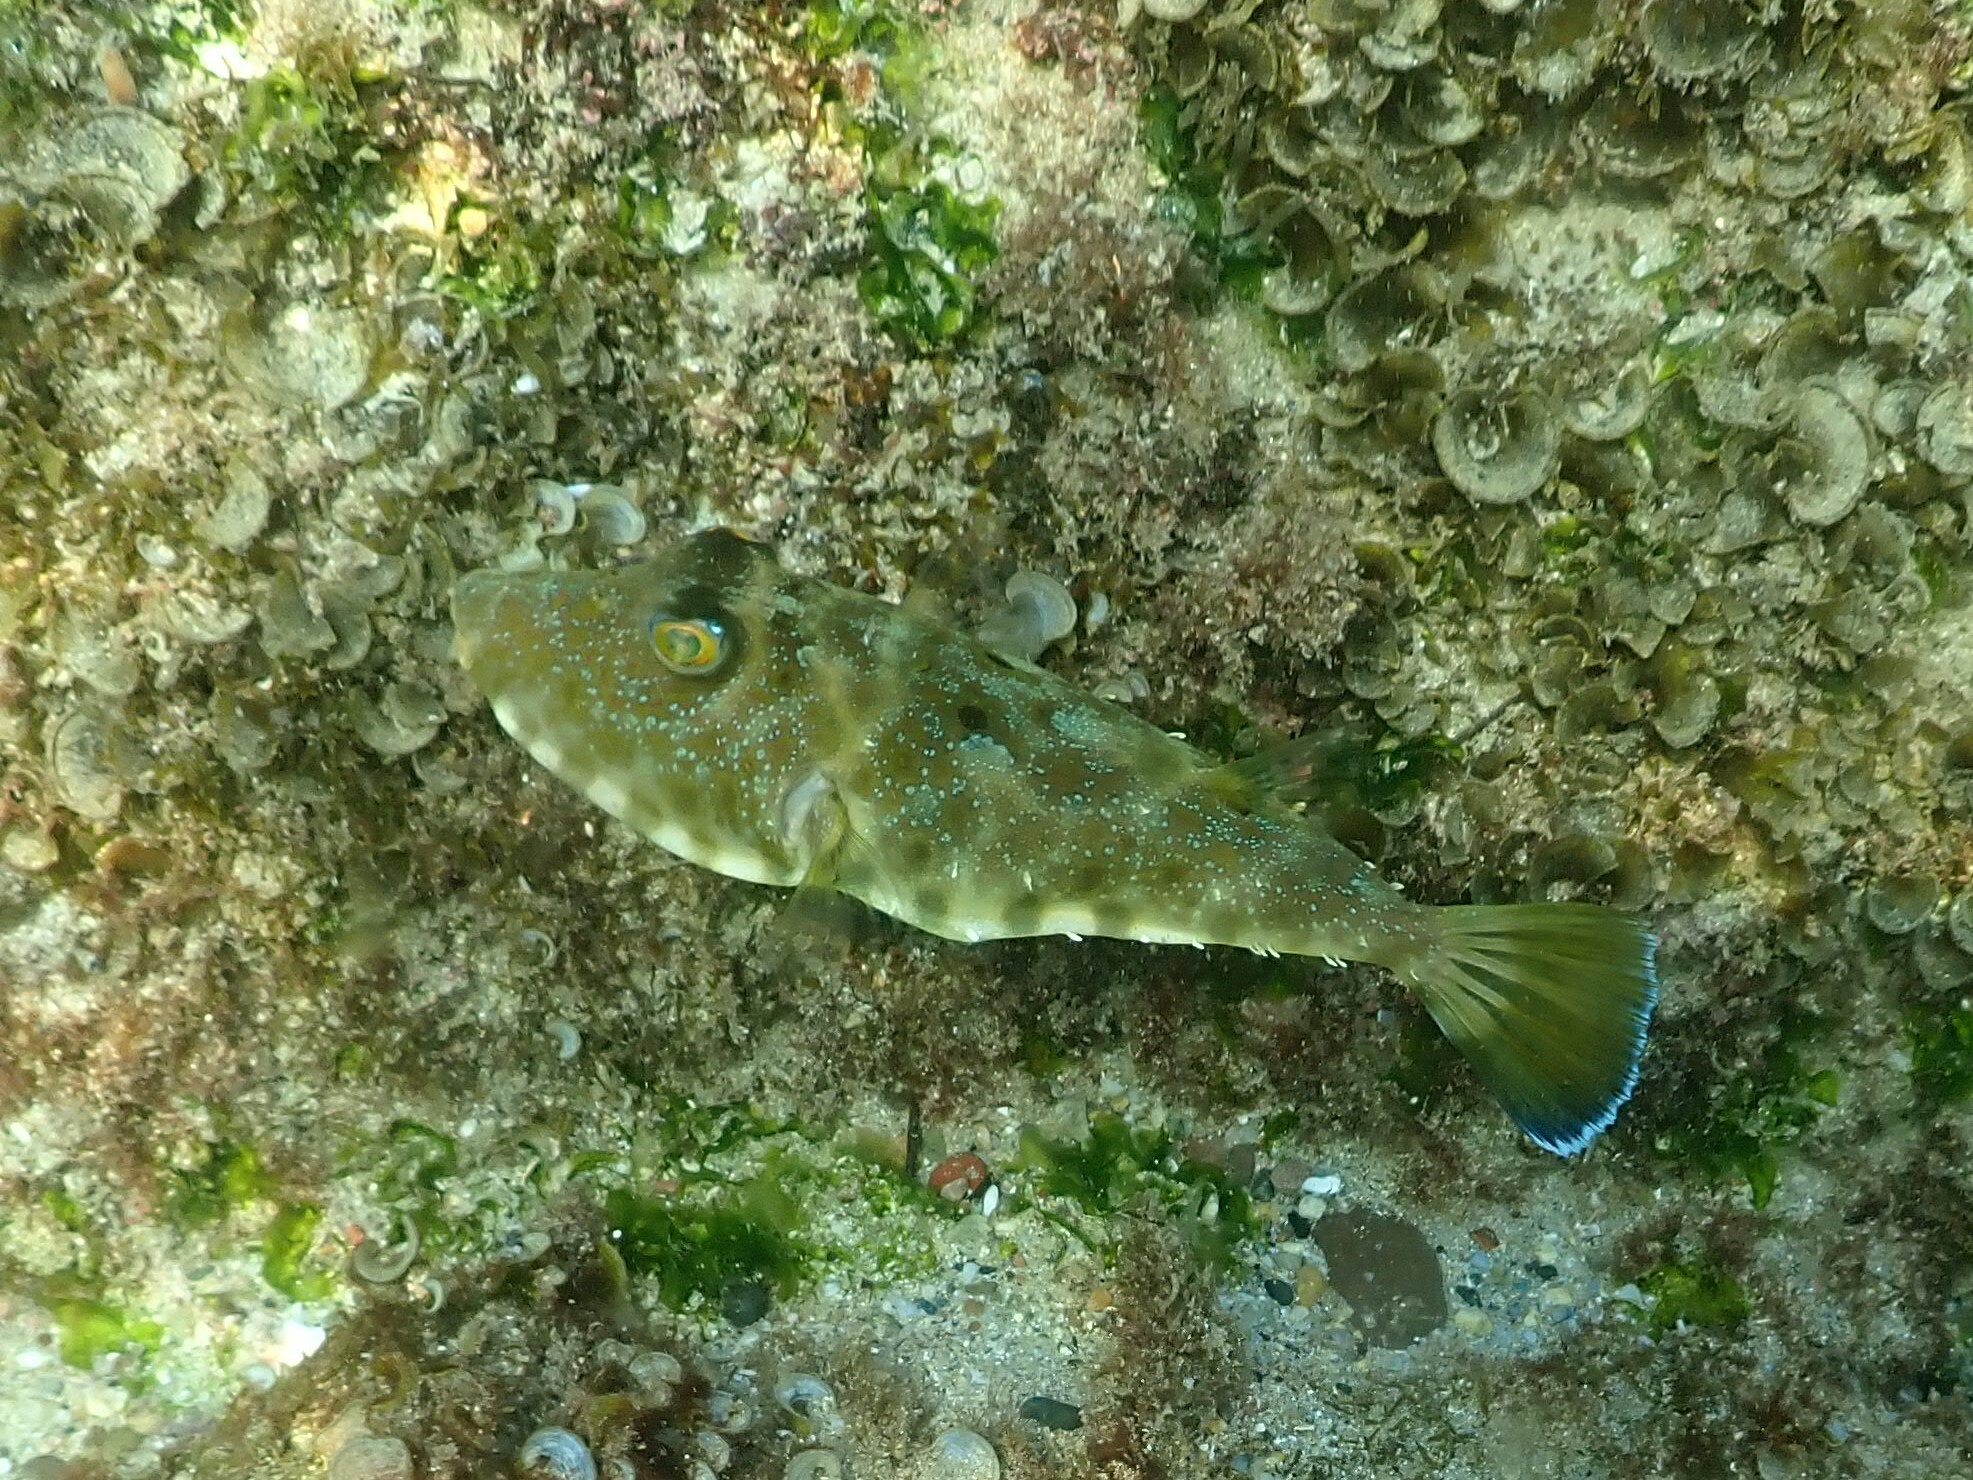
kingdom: Animalia
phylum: Chordata
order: Tetraodontiformes
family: Tetraodontidae
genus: Sphoeroides
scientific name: Sphoeroides lobatus
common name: Longnose puffer
